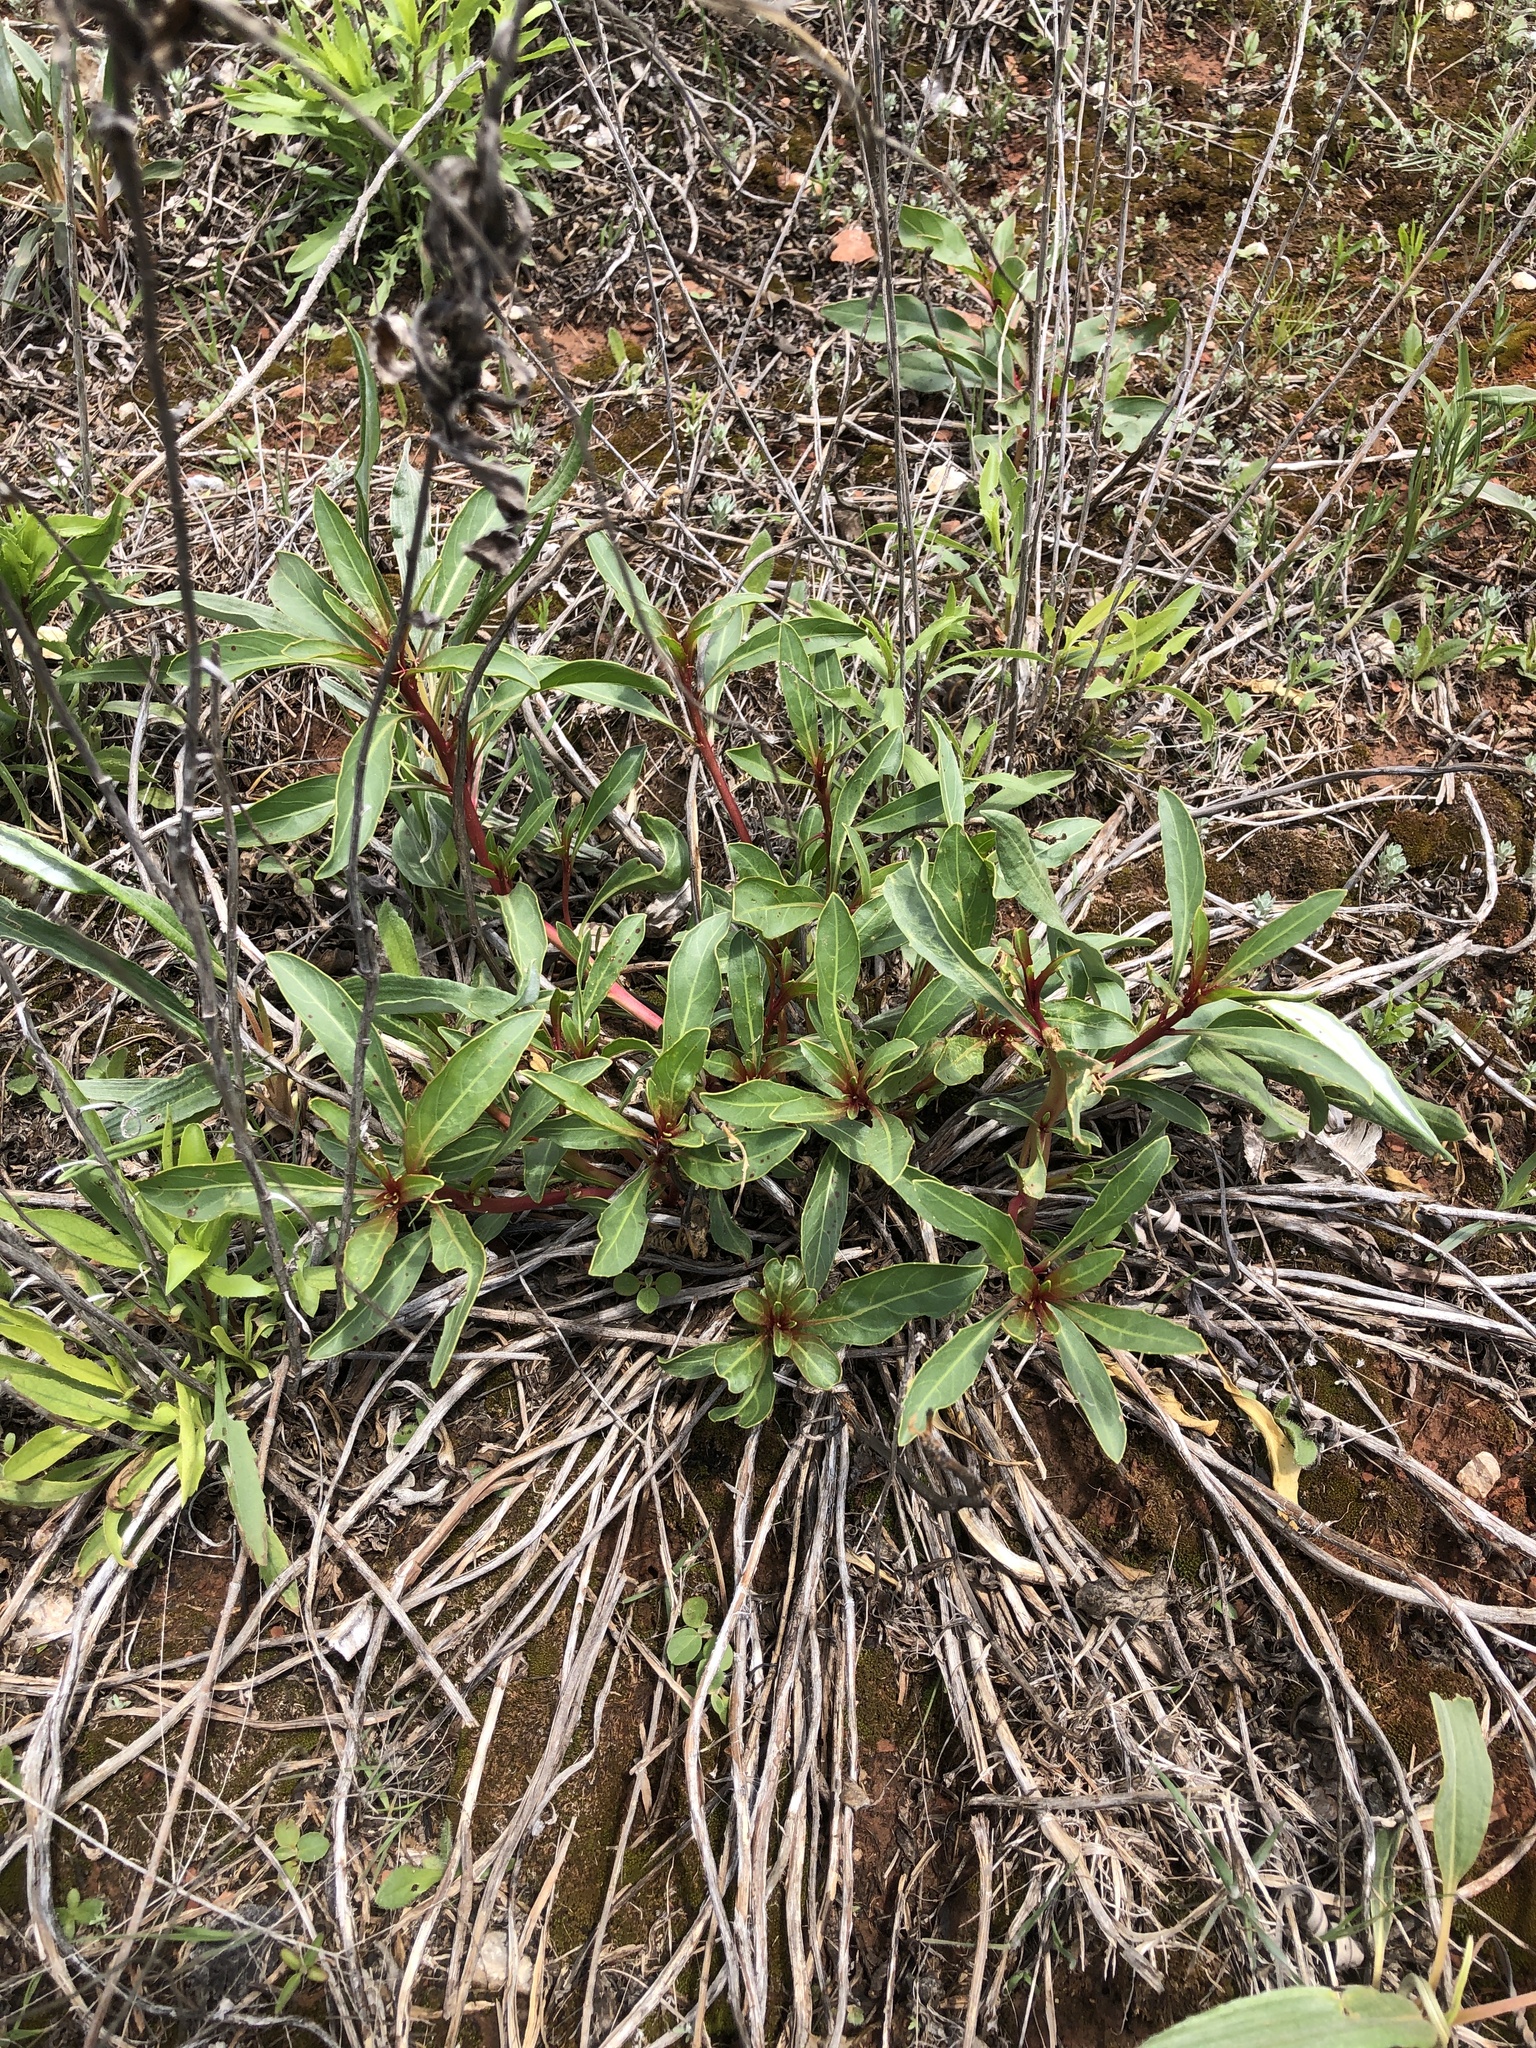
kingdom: Plantae
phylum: Tracheophyta
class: Magnoliopsida
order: Myrtales
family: Onagraceae
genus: Oenothera
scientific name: Oenothera macrocarpa
